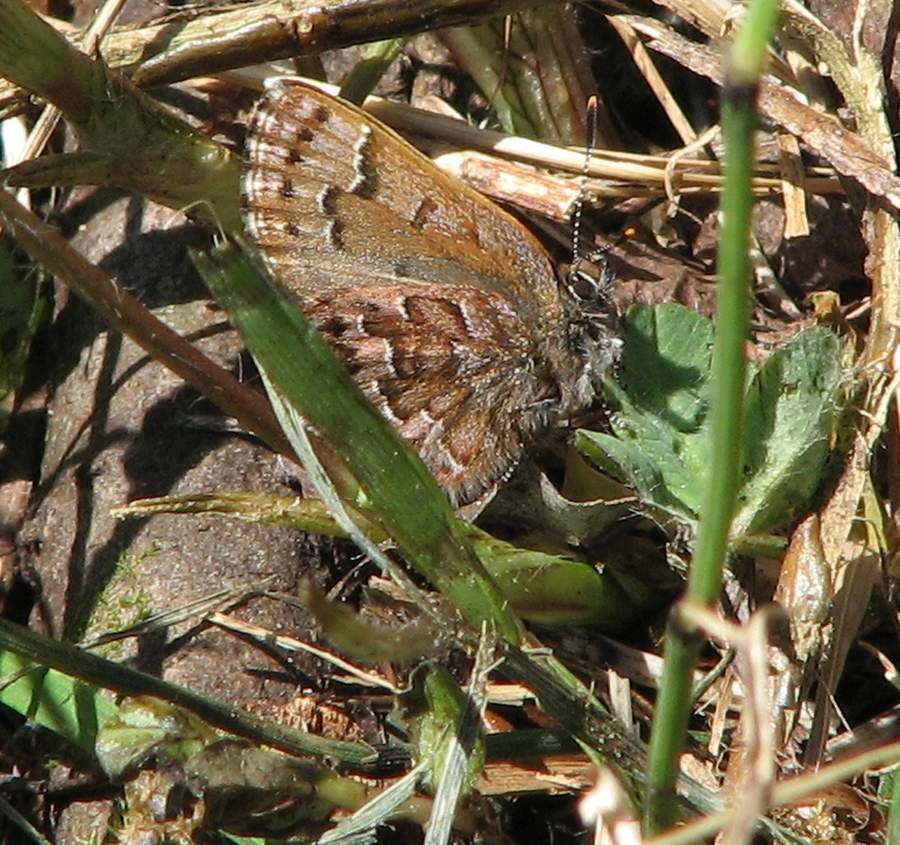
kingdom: Animalia
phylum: Arthropoda
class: Insecta
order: Lepidoptera
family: Lycaenidae
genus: Incisalia
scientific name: Incisalia niphon
